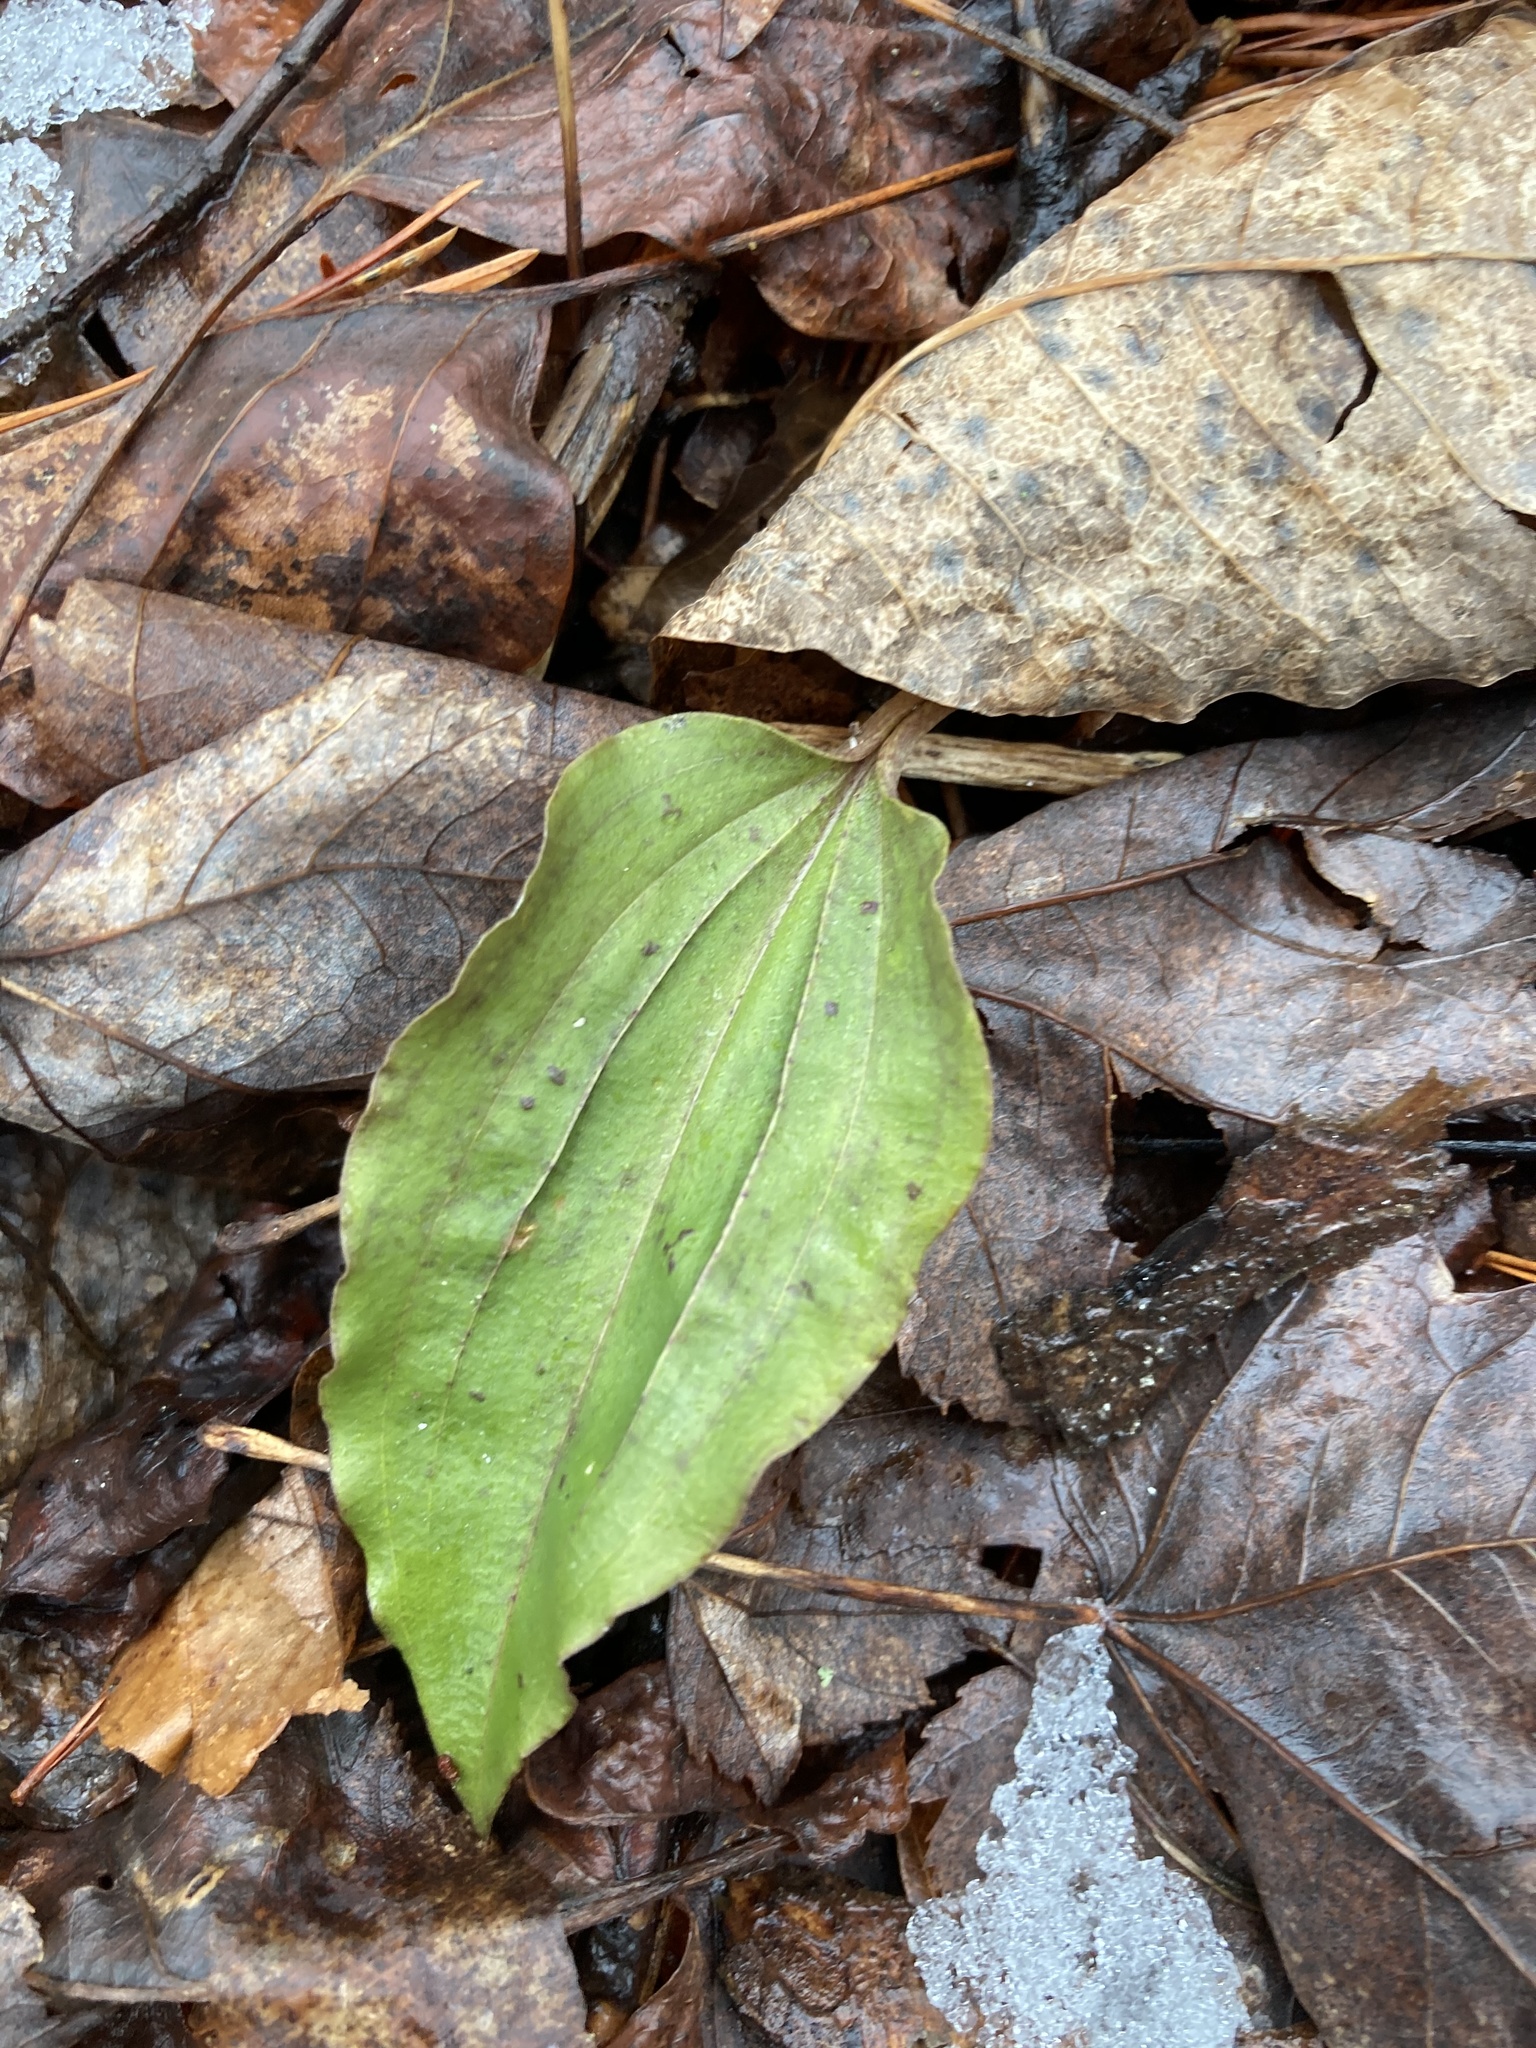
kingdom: Plantae
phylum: Tracheophyta
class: Liliopsida
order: Asparagales
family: Orchidaceae
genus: Tipularia
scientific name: Tipularia discolor
